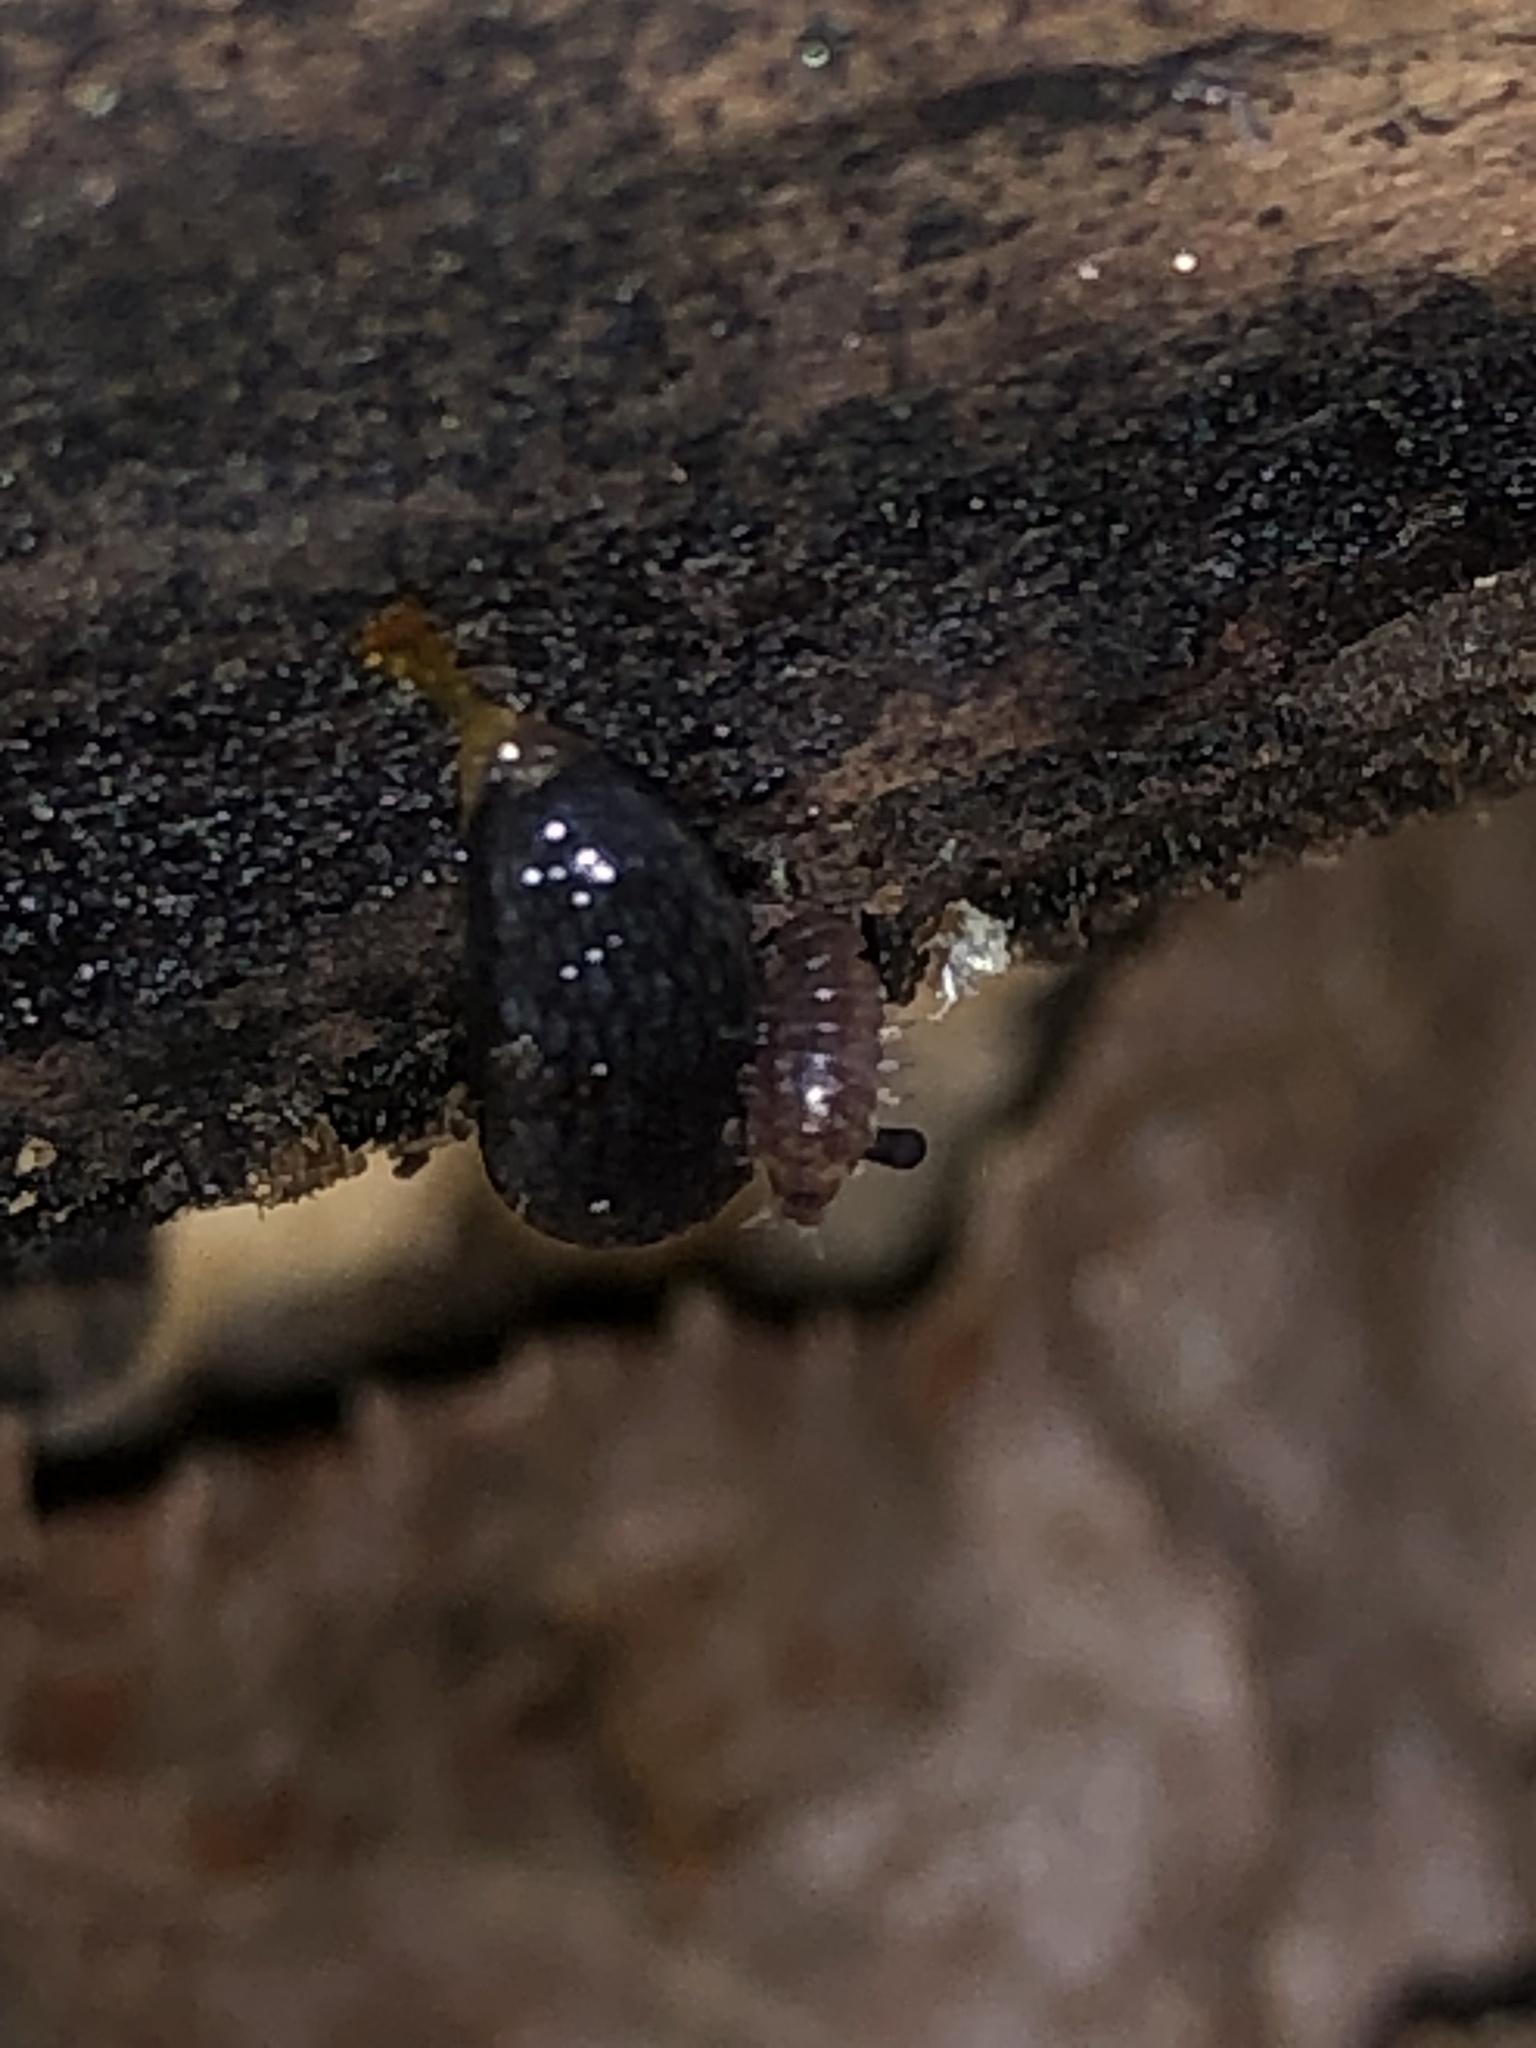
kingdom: Animalia
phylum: Mollusca
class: Gastropoda
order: Stylommatophora
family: Arionidae
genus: Arion
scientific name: Arion hortensis
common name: Garden arion
